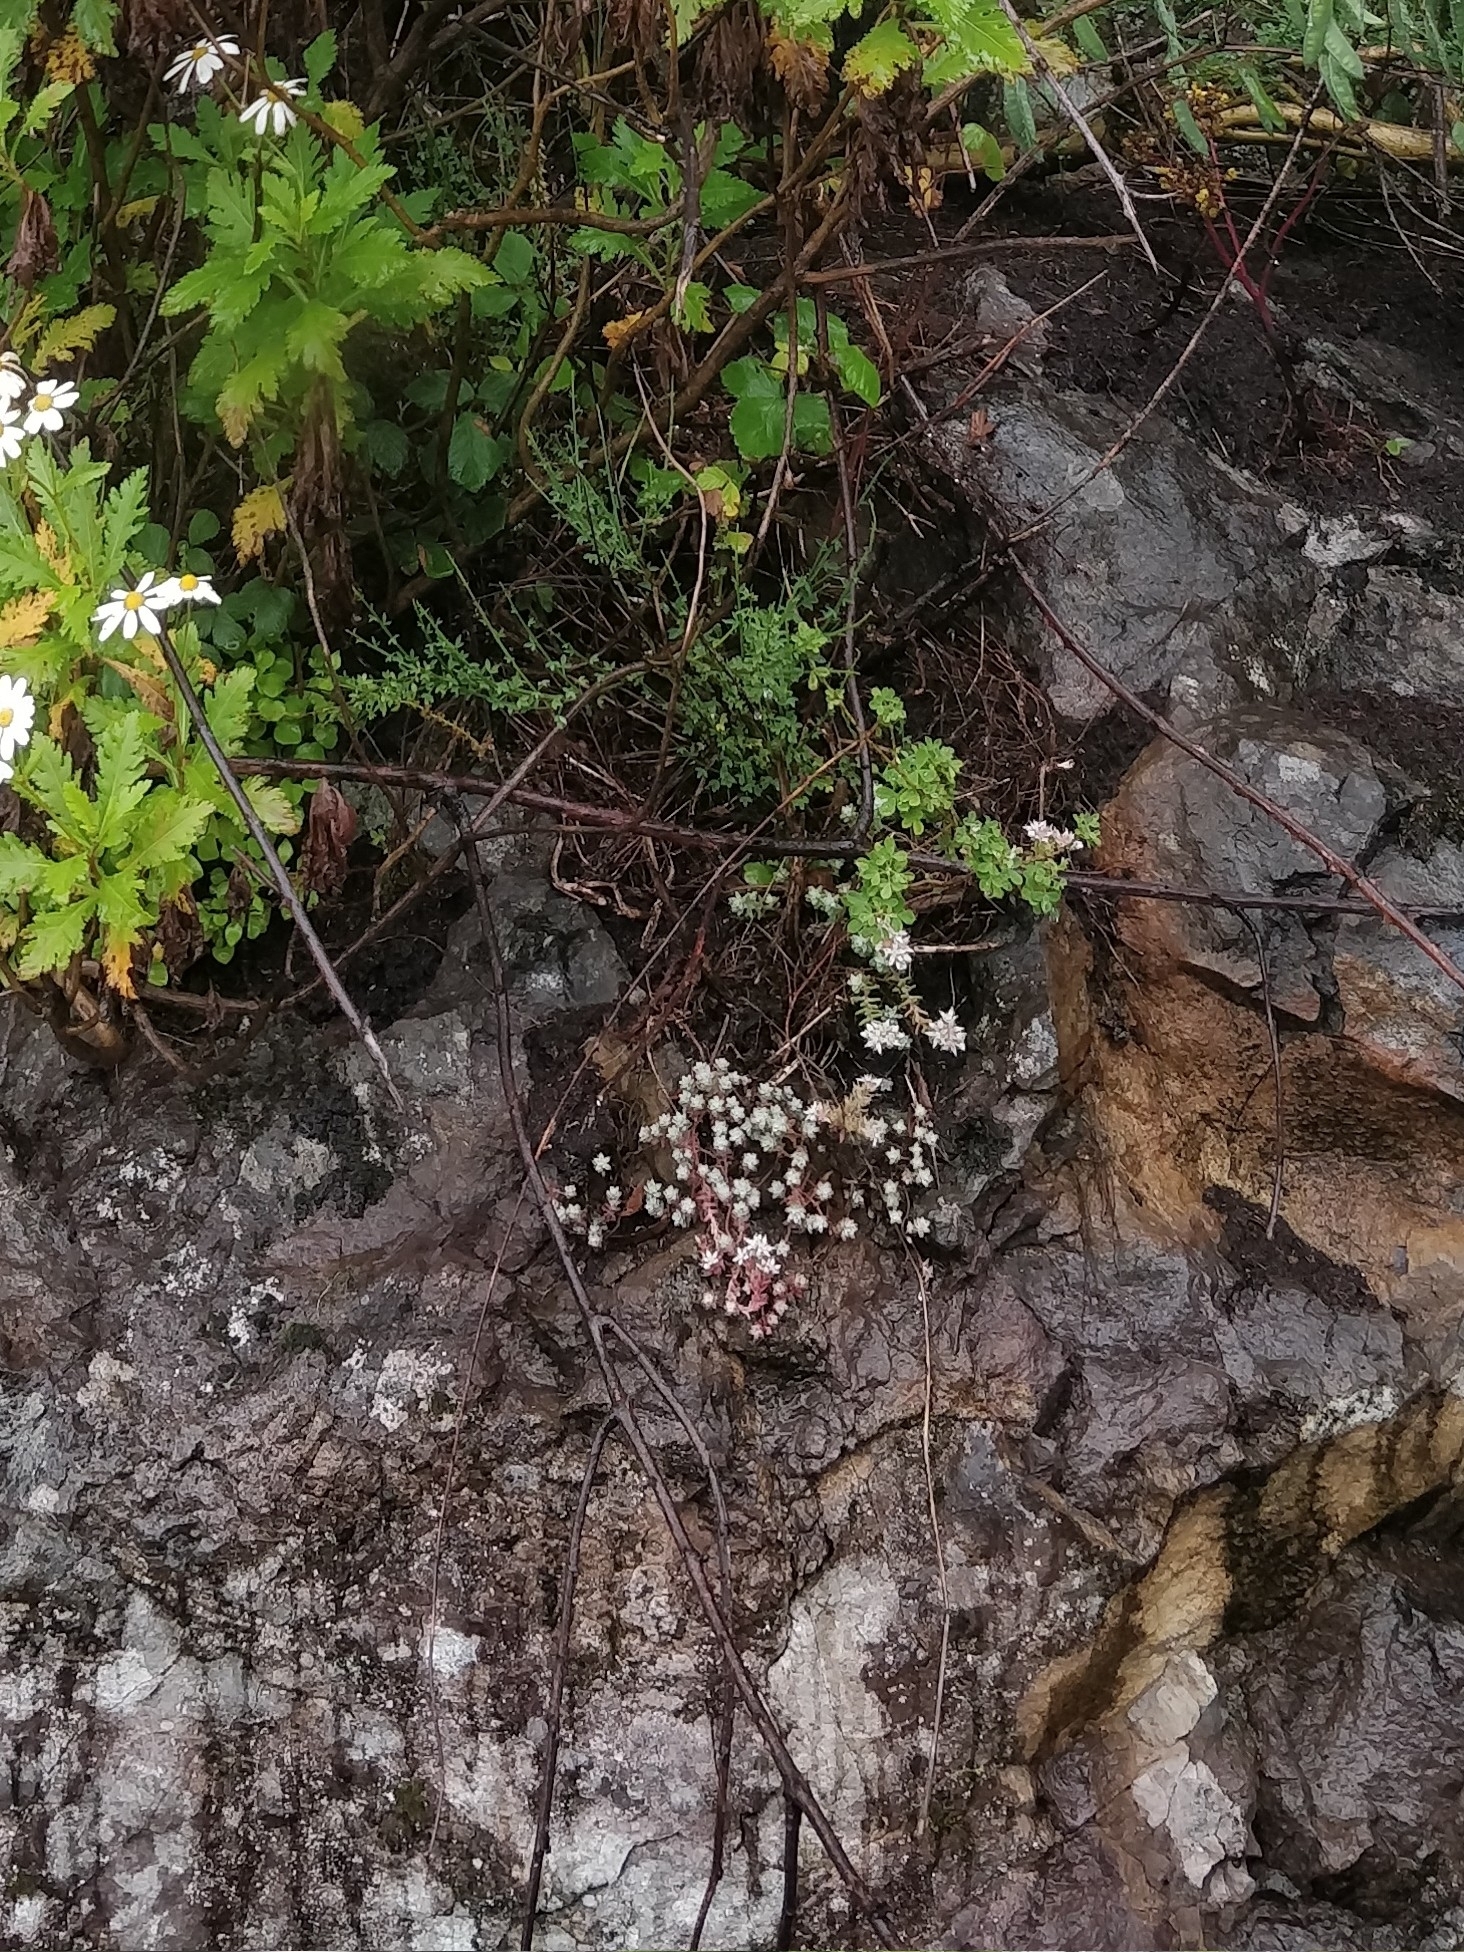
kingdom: Plantae
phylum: Tracheophyta
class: Magnoliopsida
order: Saxifragales
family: Crassulaceae
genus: Sedum
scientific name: Sedum farinosum
